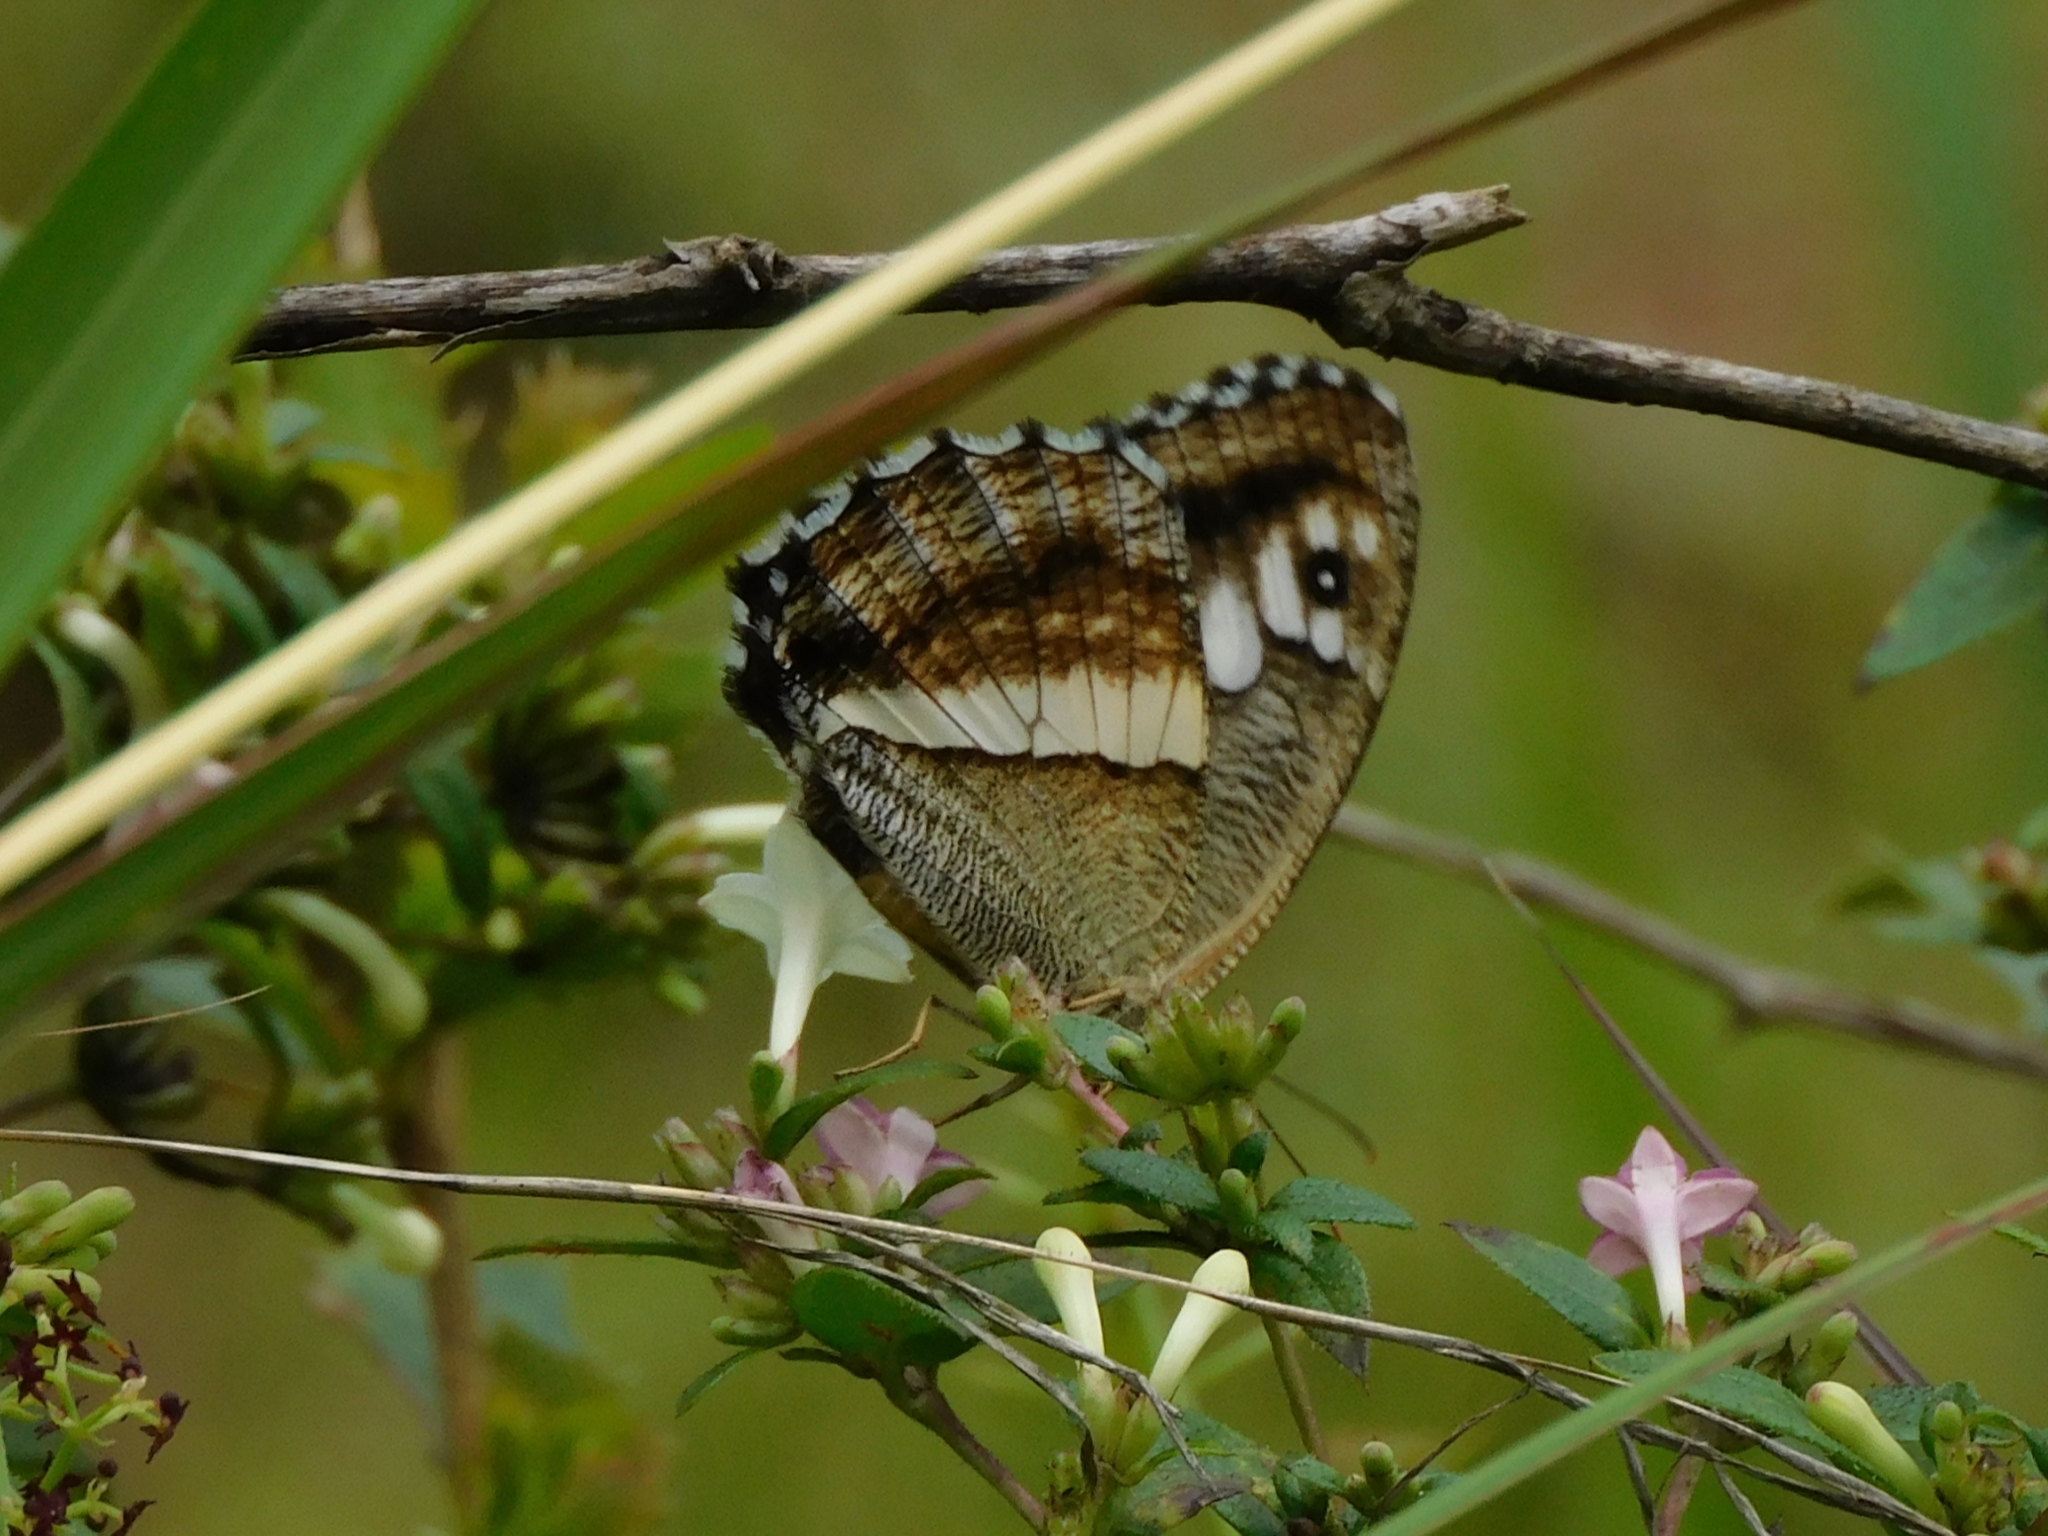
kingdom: Animalia
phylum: Arthropoda
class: Insecta
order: Lepidoptera
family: Nymphalidae
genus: Satyrus
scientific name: Satyrus
